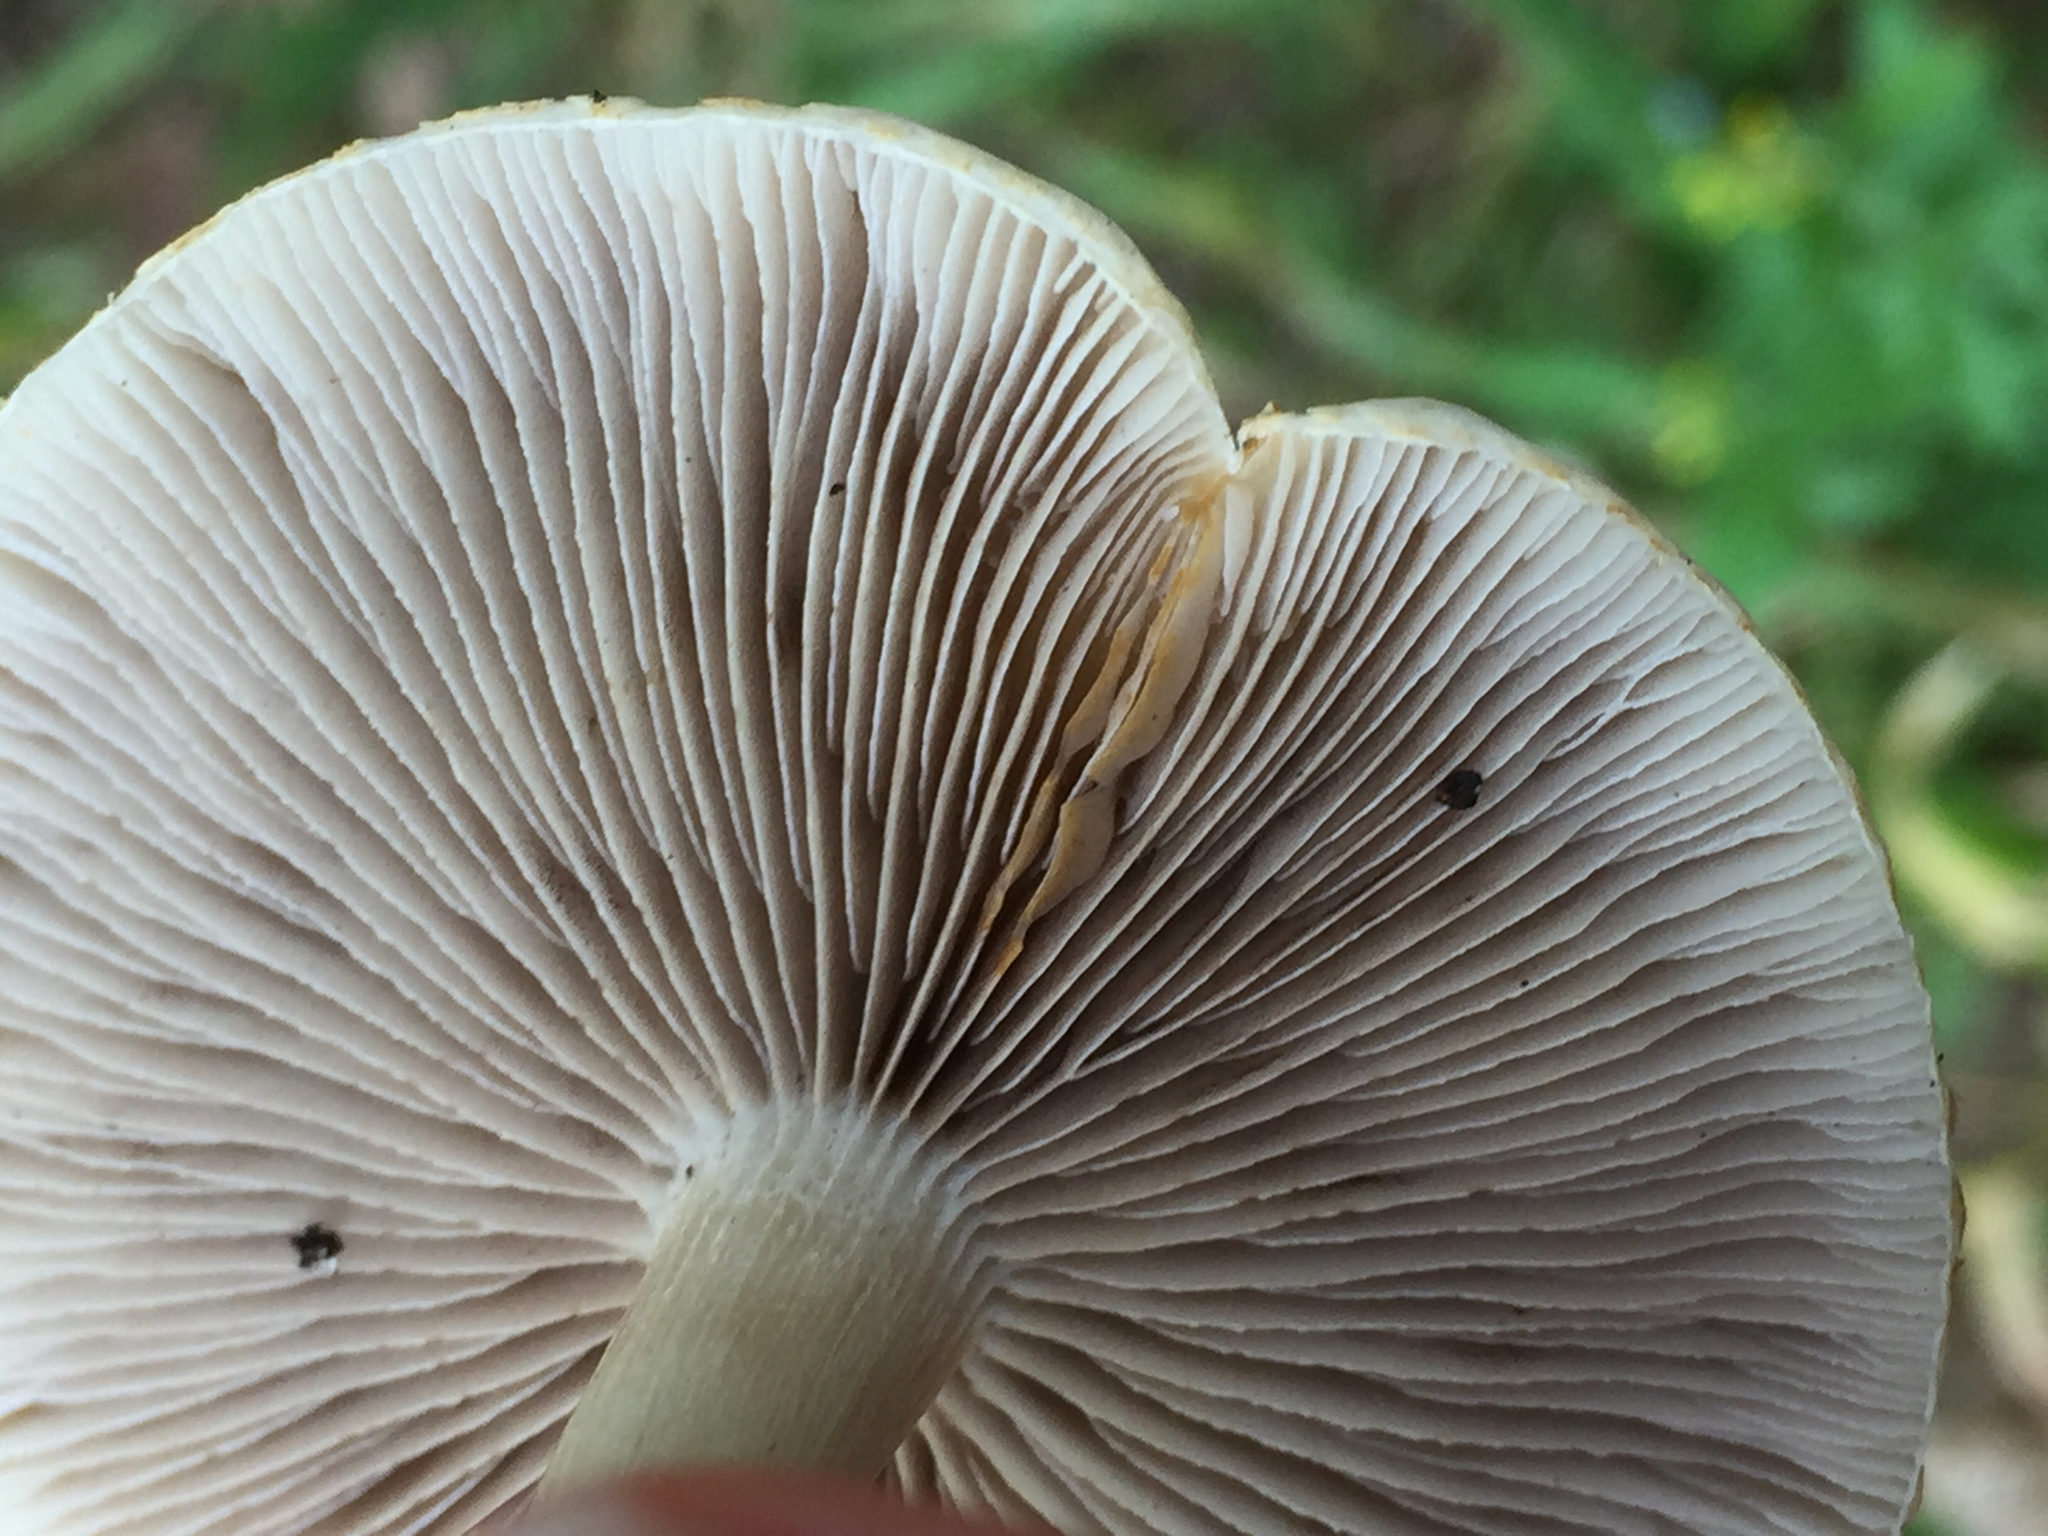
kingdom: Fungi
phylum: Basidiomycota
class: Agaricomycetes
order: Agaricales
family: Strophariaceae
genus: Agrocybe
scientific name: Agrocybe praecox
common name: Spring fieldcap
